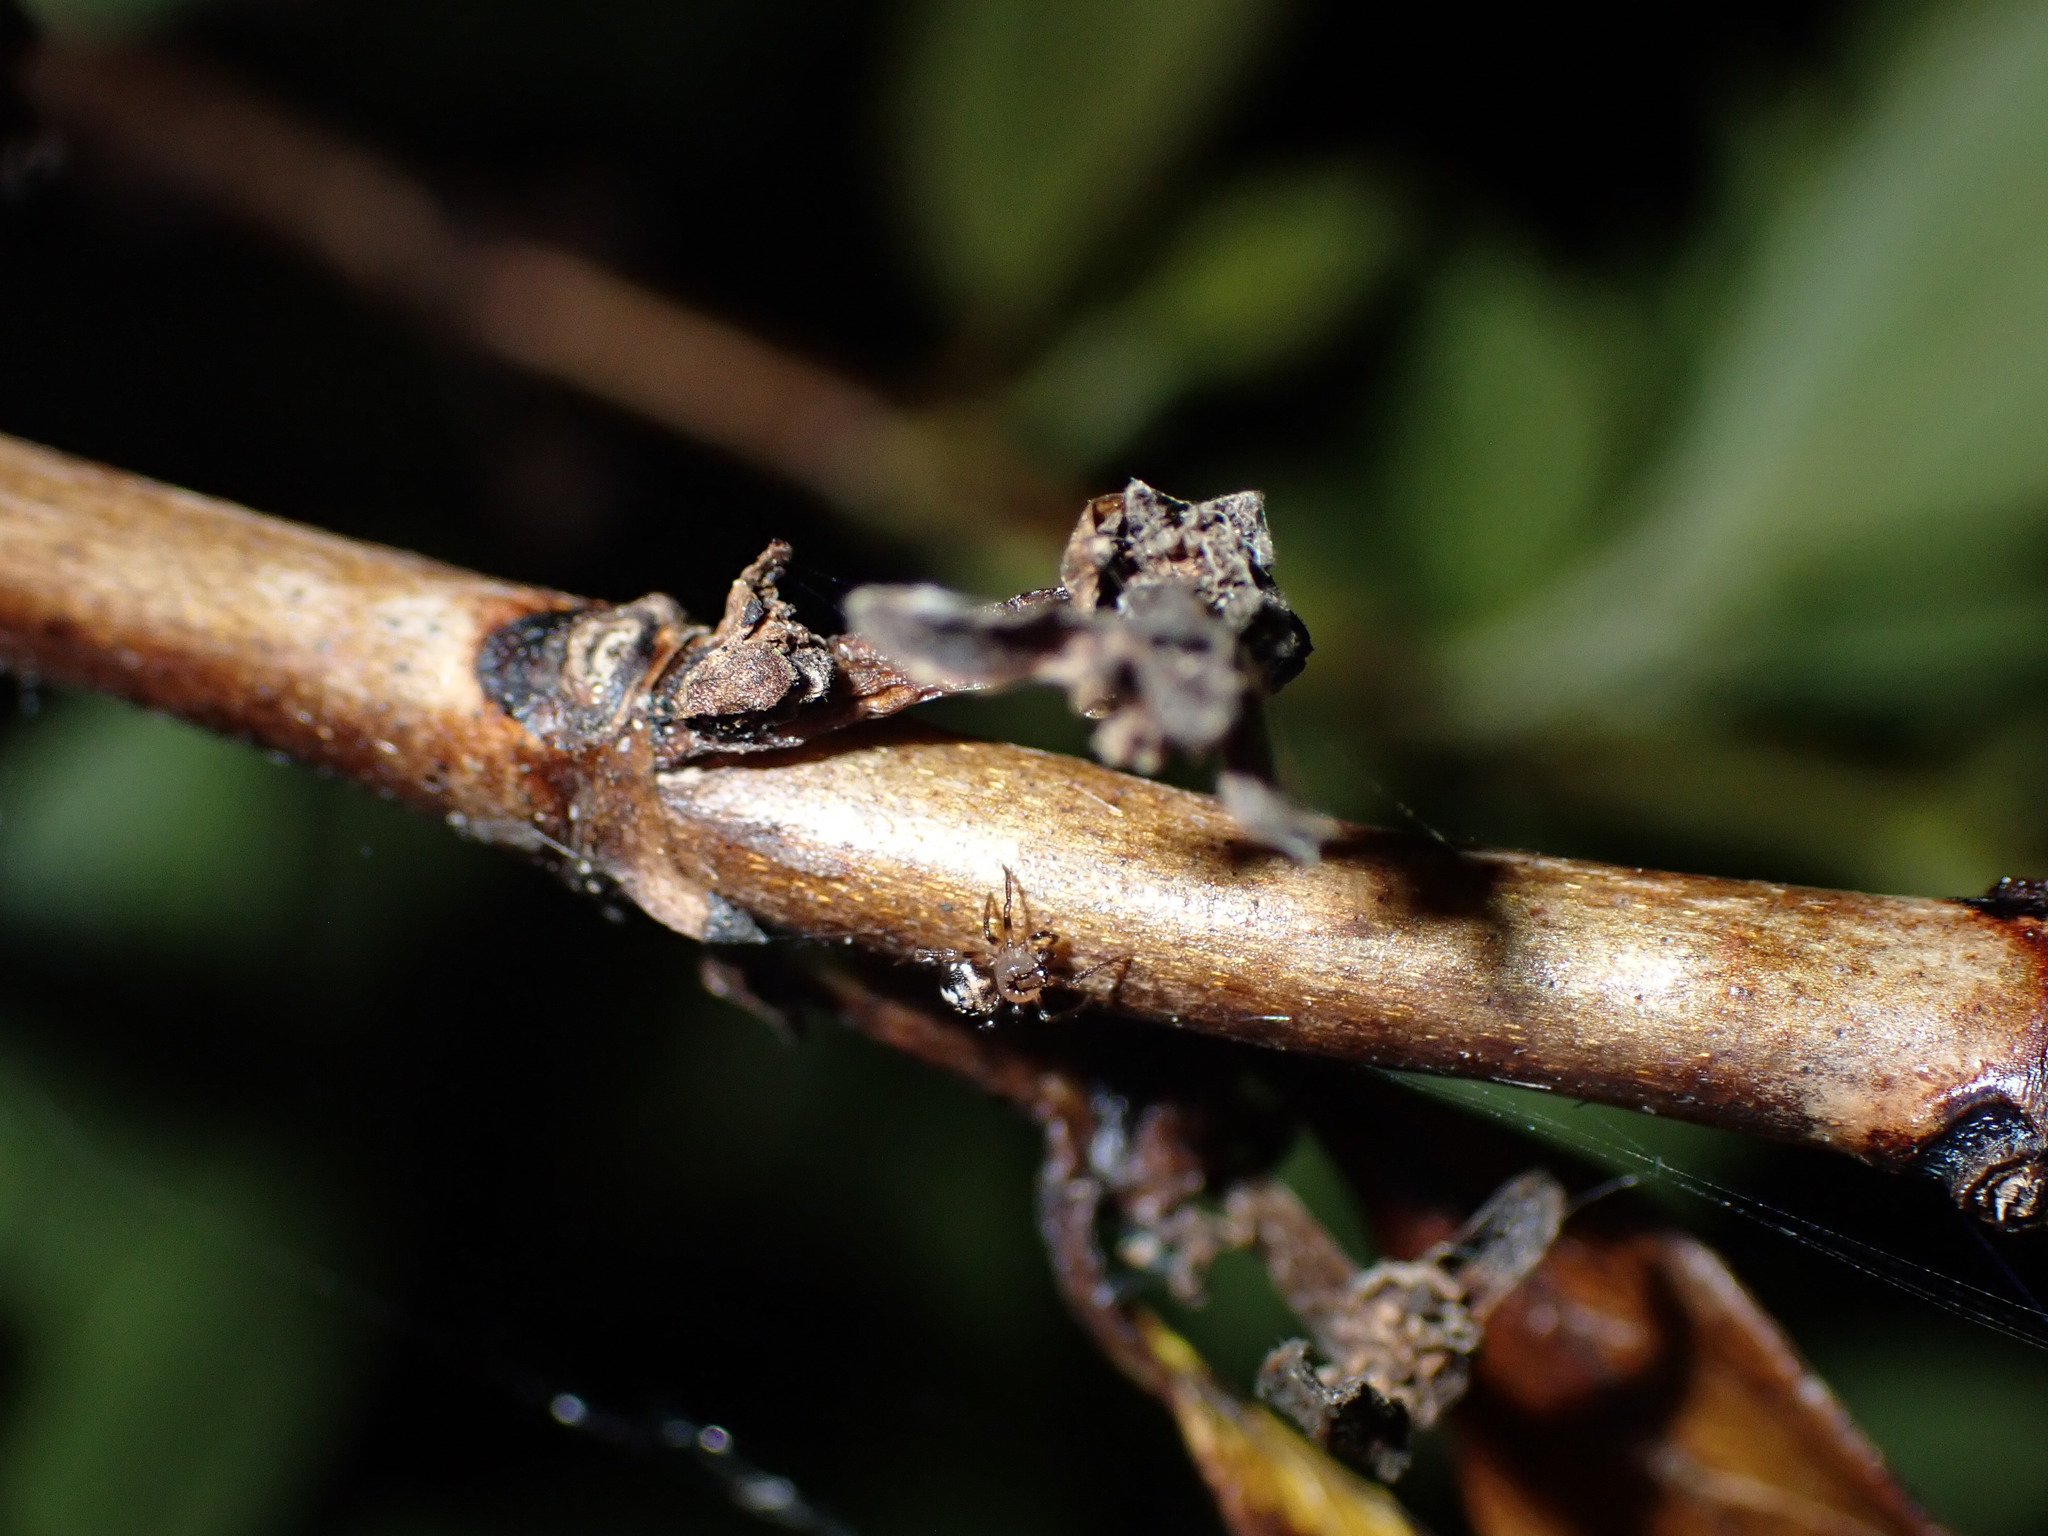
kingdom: Animalia
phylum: Arthropoda
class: Arachnida
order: Araneae
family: Theridiidae
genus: Phycosoma
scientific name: Phycosoma oecobioides
